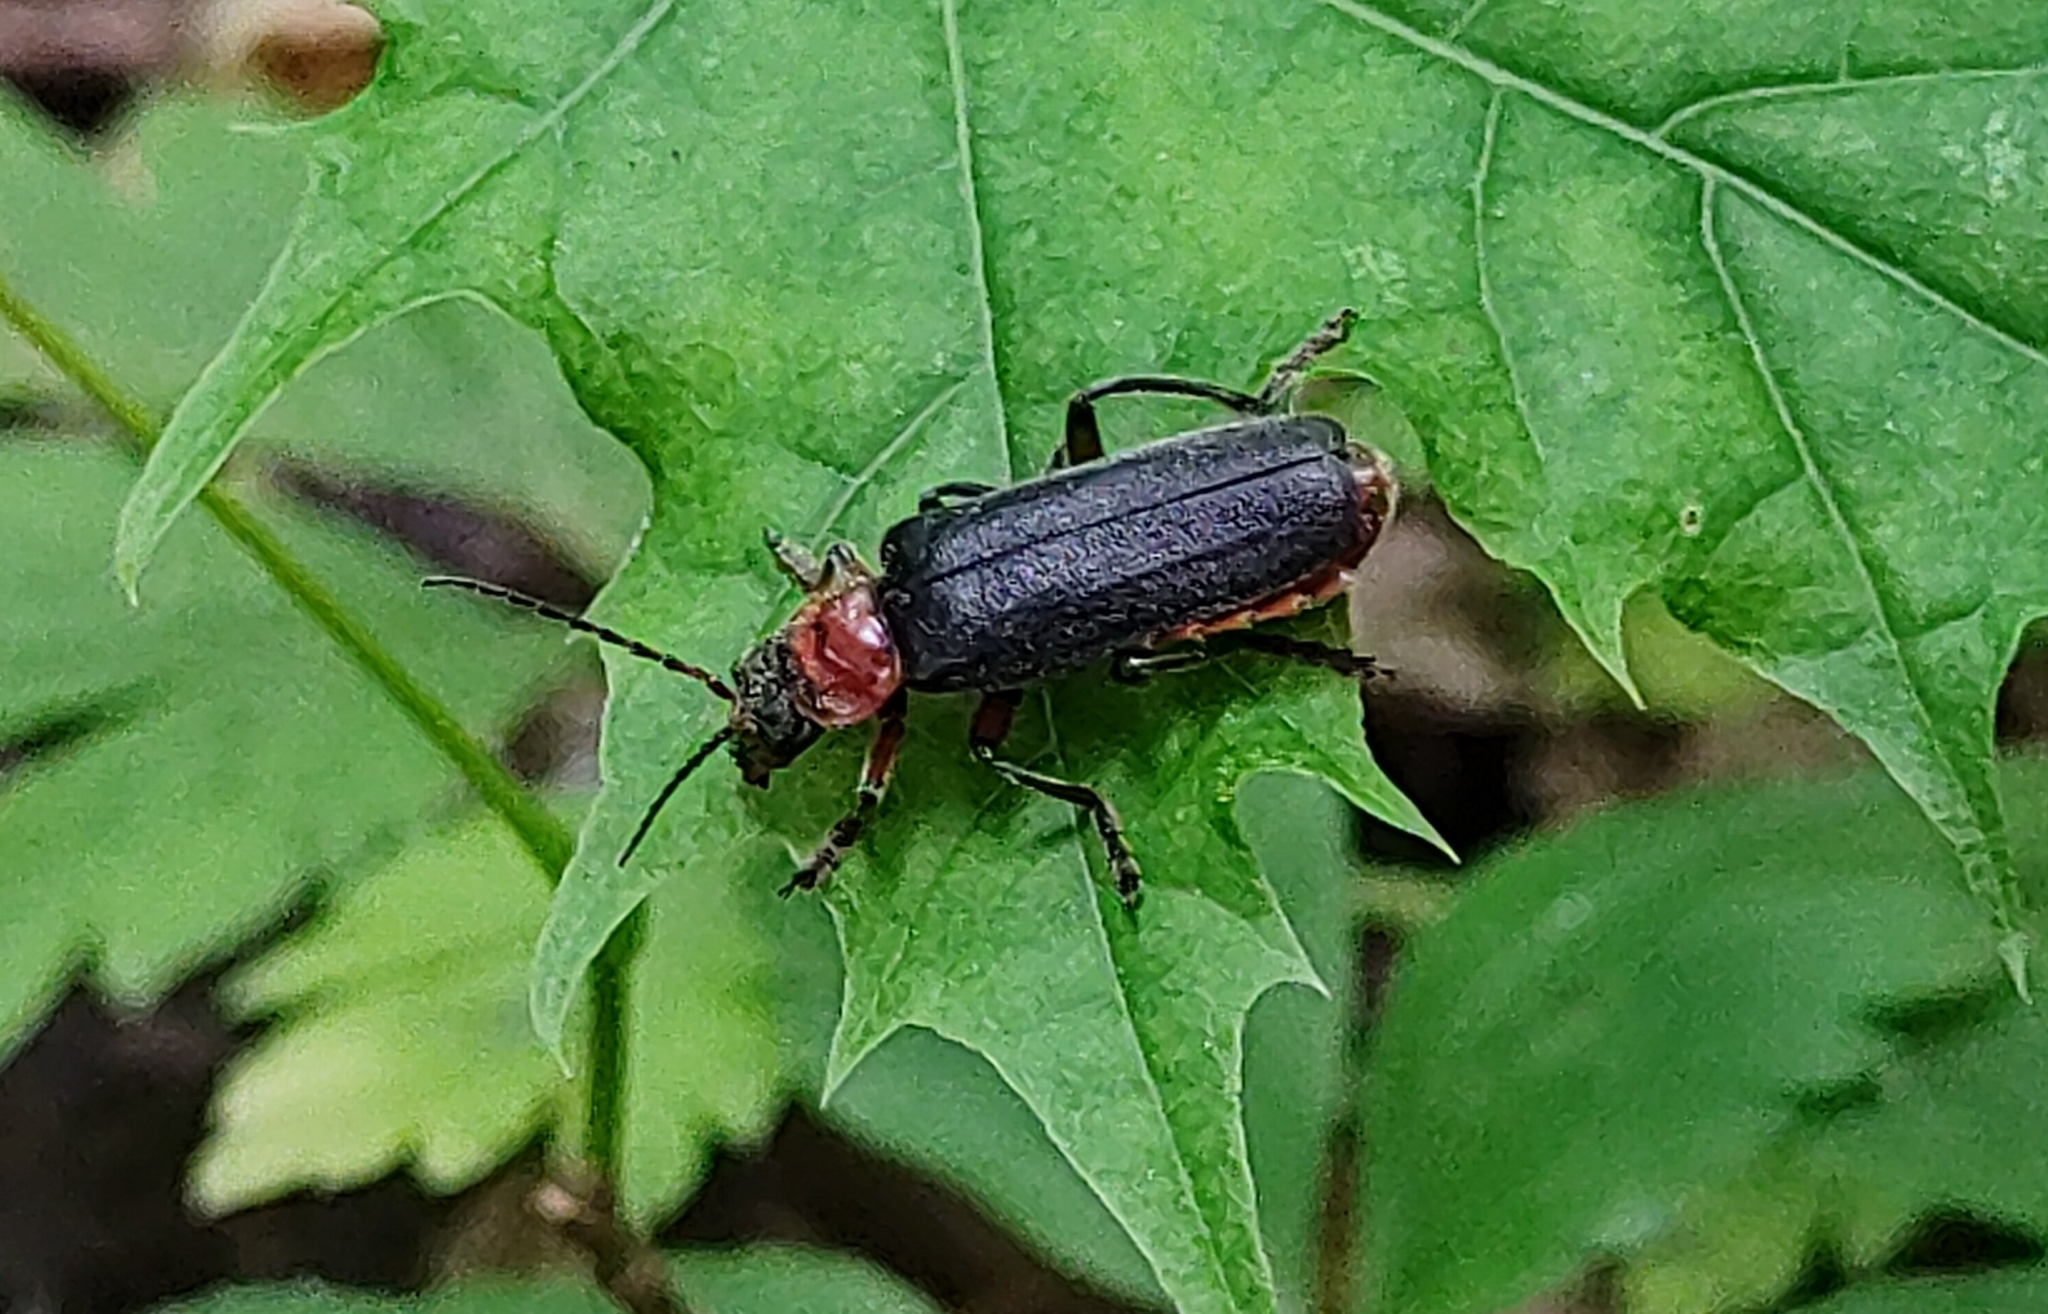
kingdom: Animalia
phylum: Arthropoda
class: Insecta
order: Coleoptera
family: Cantharidae
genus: Cantharis
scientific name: Cantharis rustica
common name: Soldier beetle
